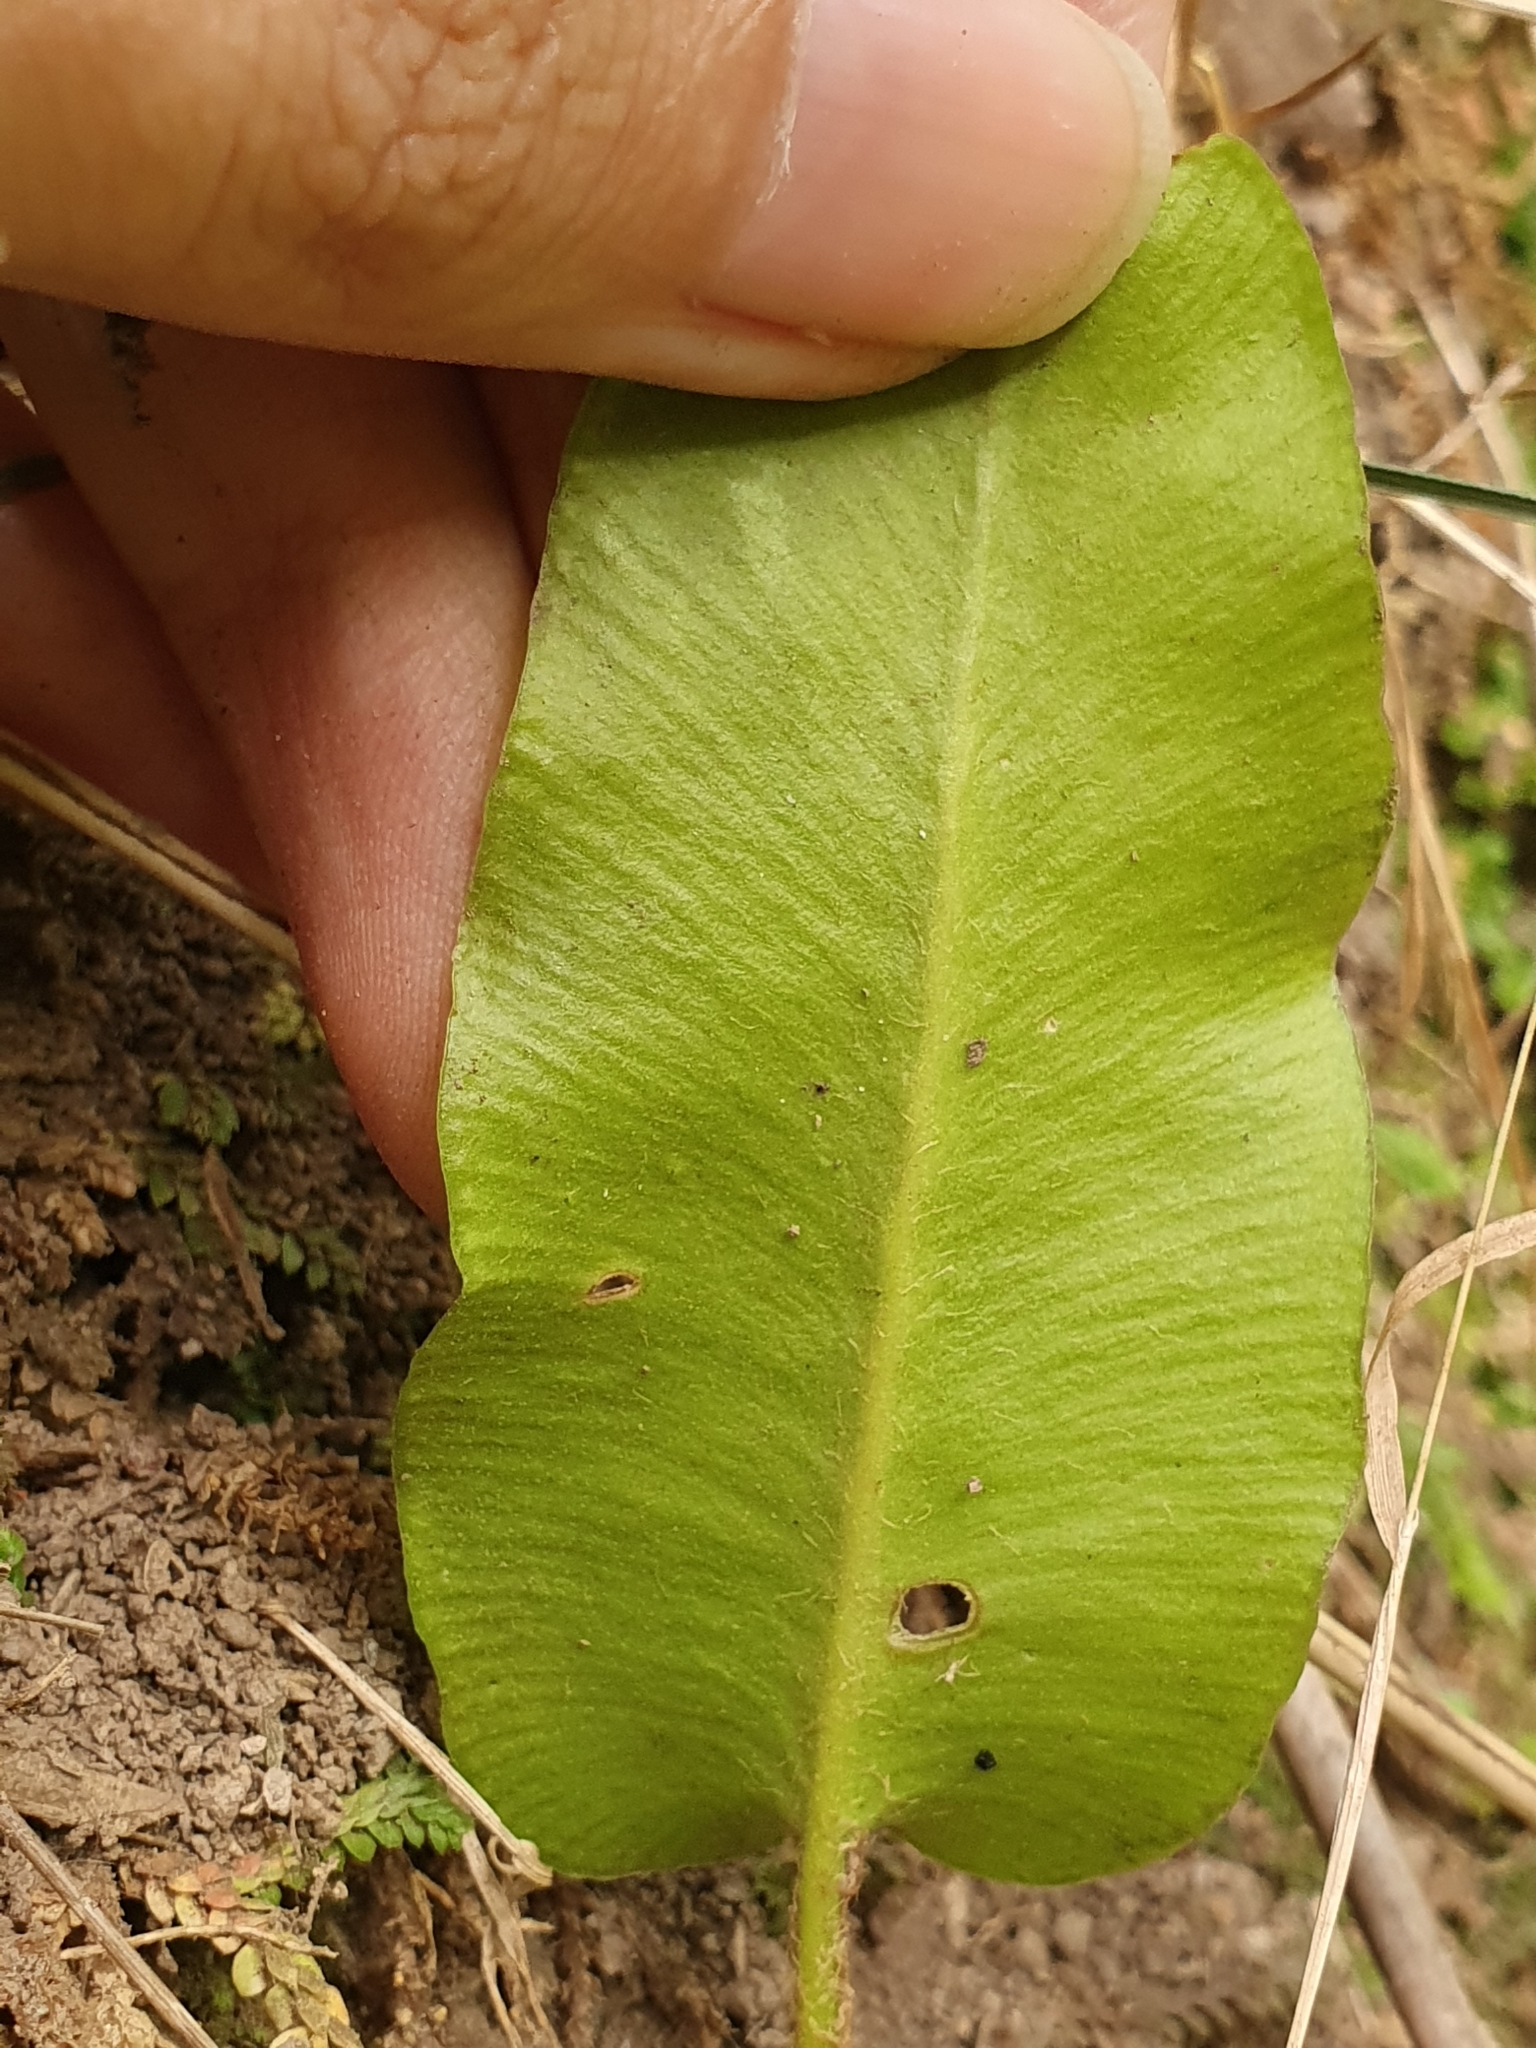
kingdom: Plantae
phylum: Tracheophyta
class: Polypodiopsida
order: Polypodiales
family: Aspleniaceae
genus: Asplenium
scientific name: Asplenium scolopendrium
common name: Hart's-tongue fern
